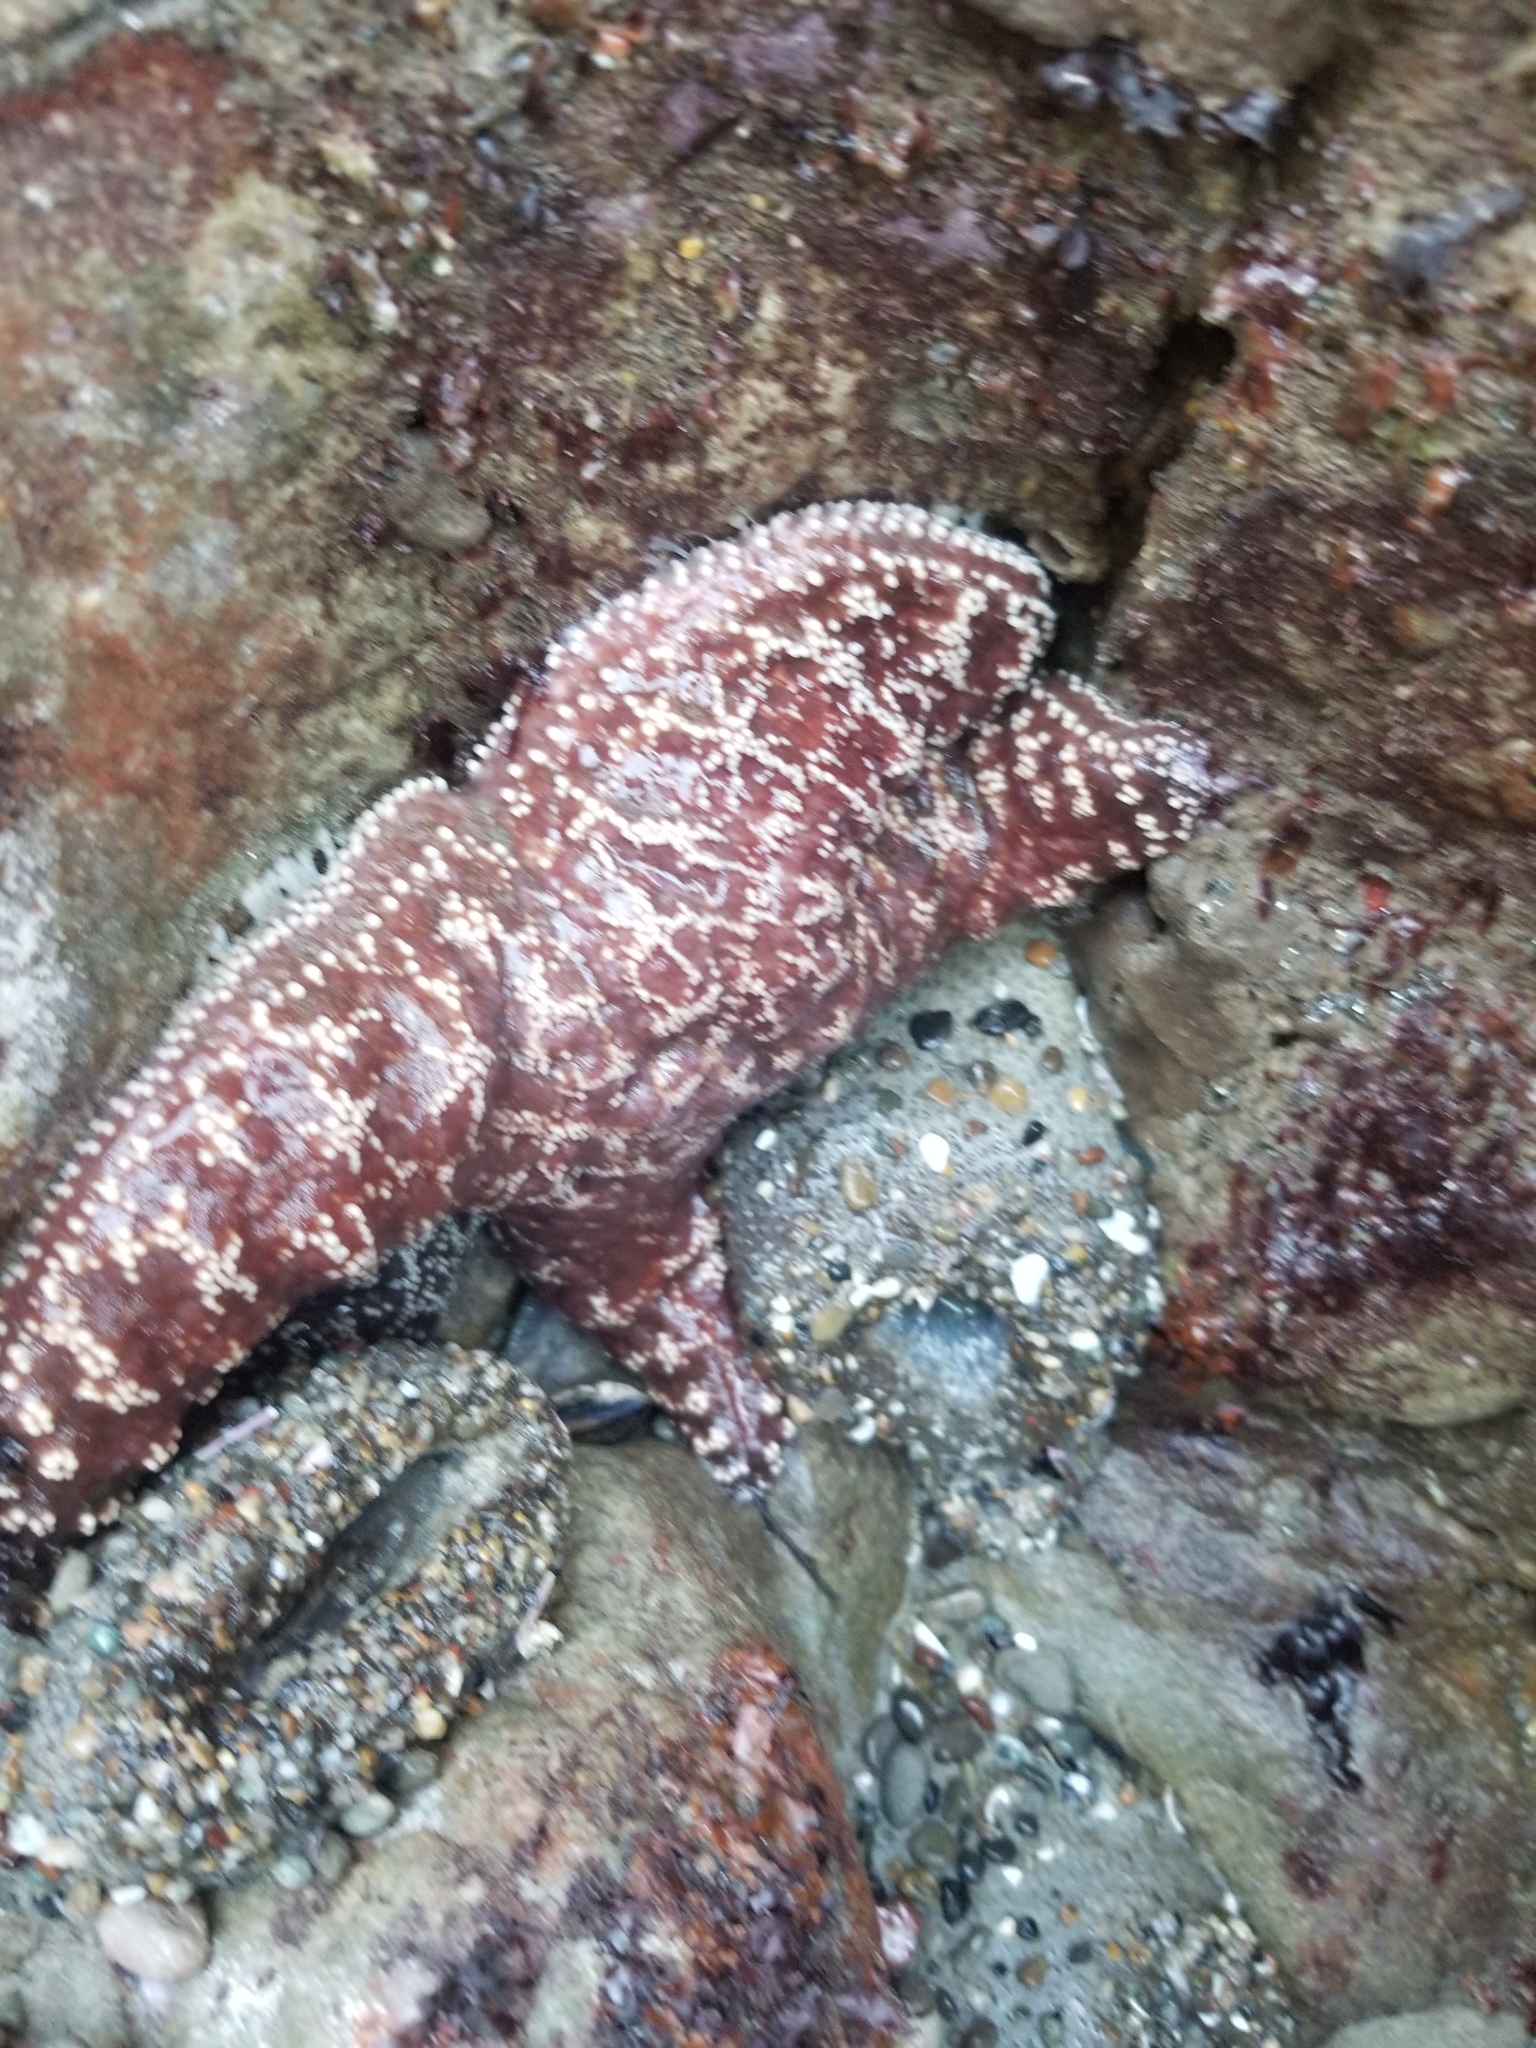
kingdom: Animalia
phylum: Echinodermata
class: Asteroidea
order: Forcipulatida
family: Asteriidae
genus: Pisaster
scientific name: Pisaster ochraceus
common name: Ochre stars
